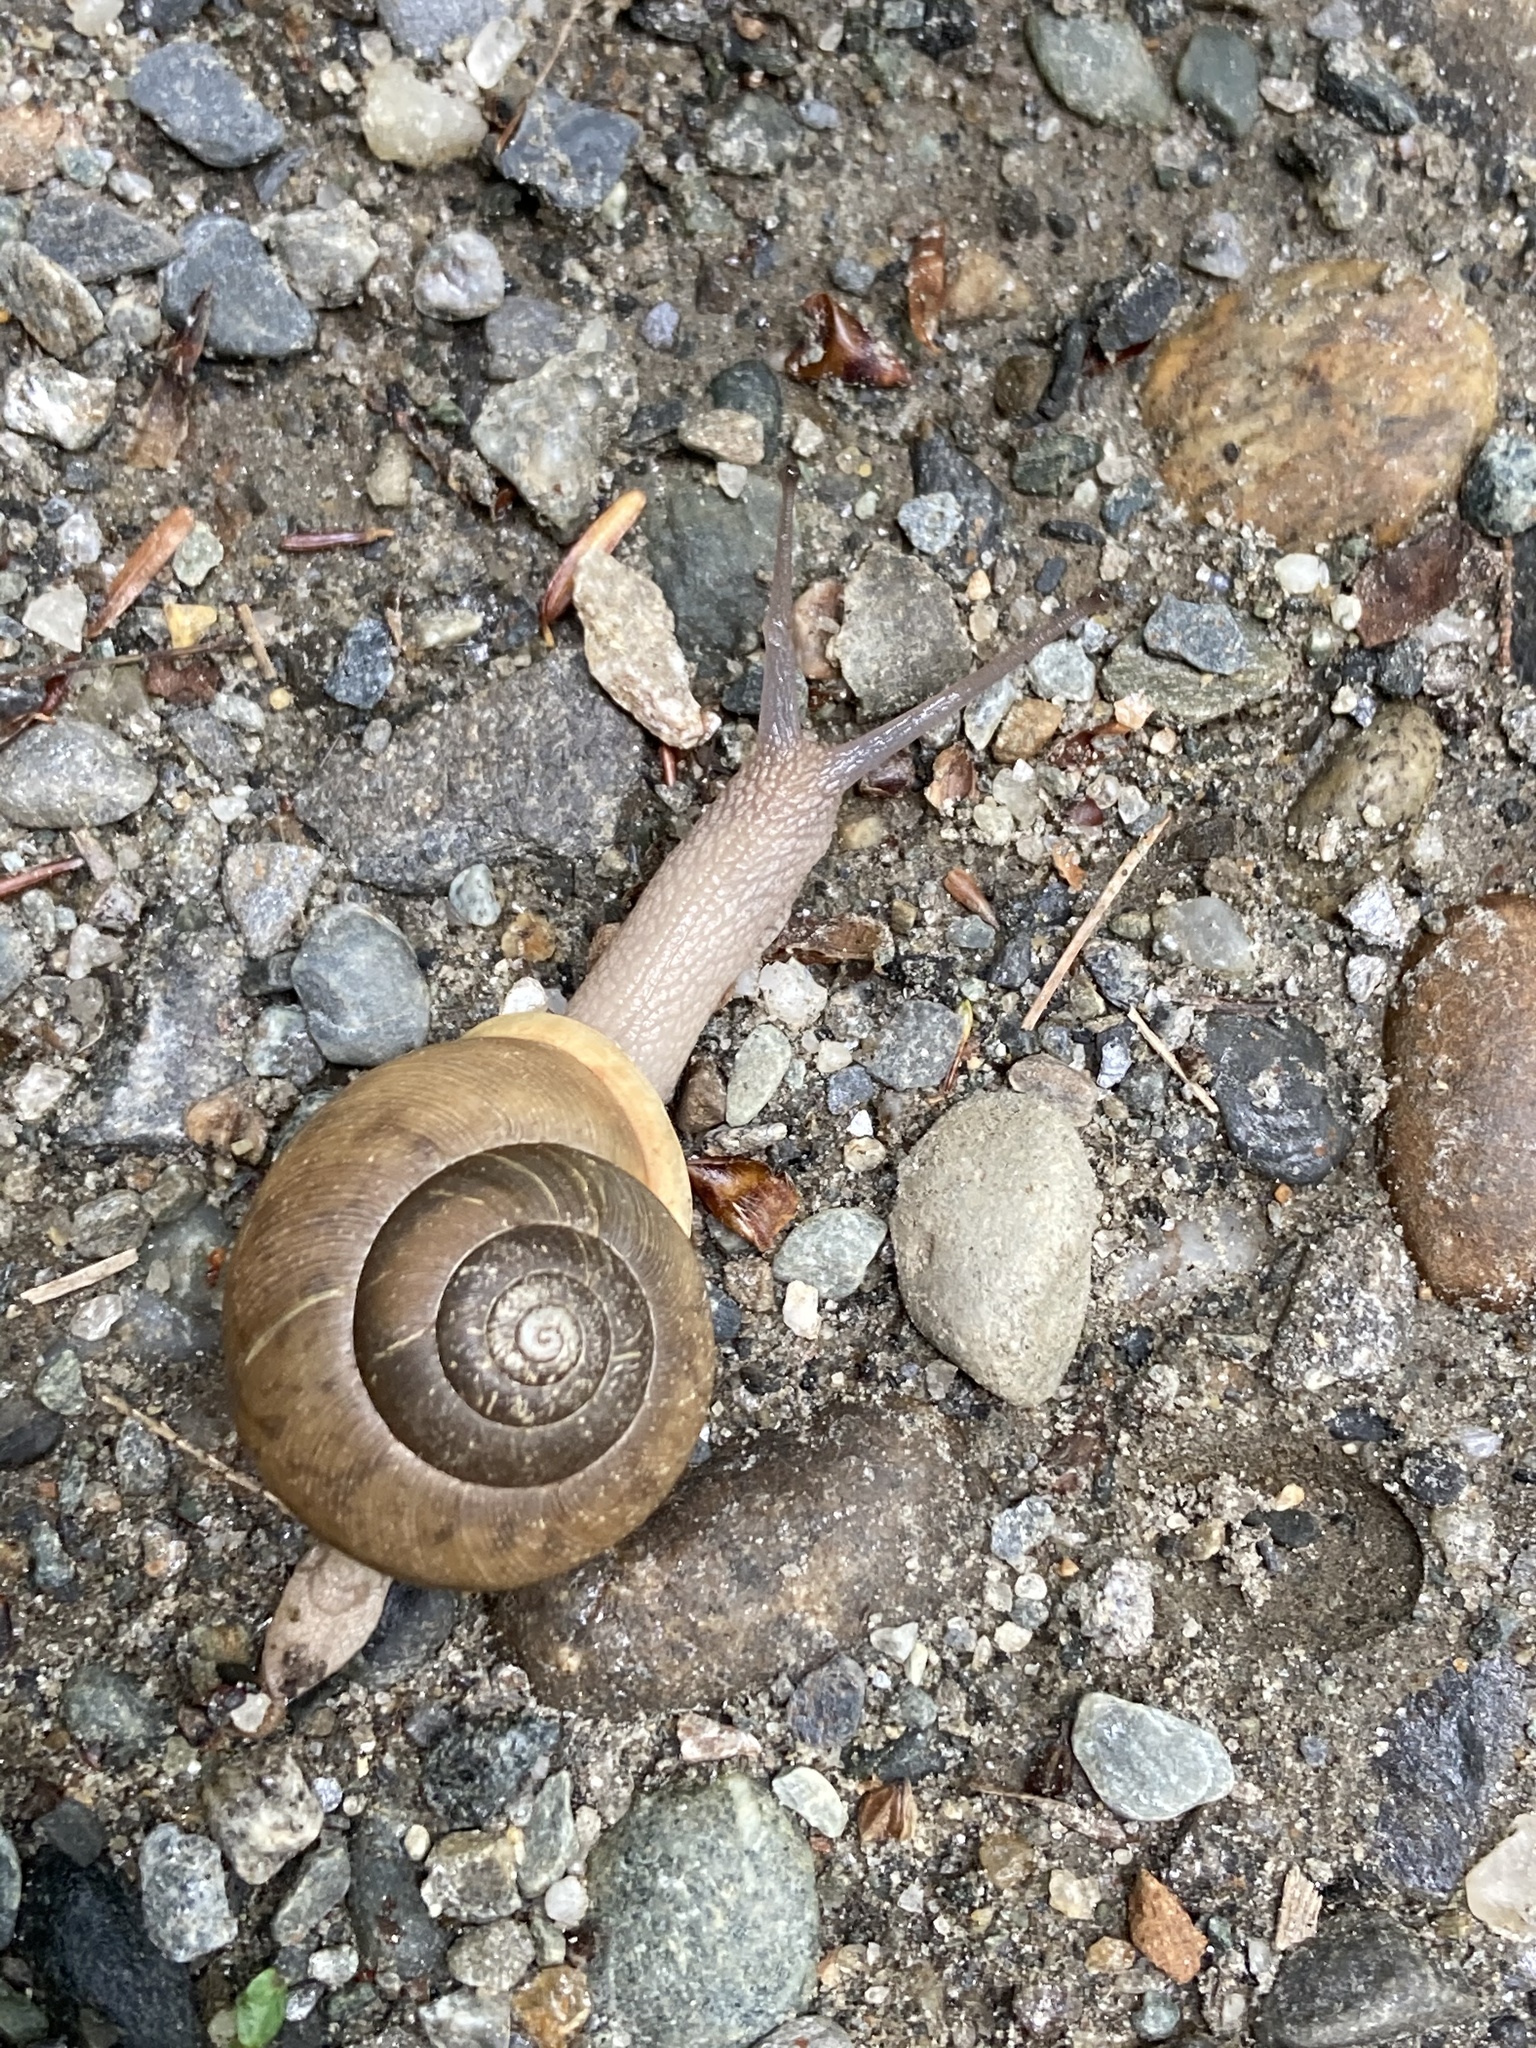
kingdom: Animalia
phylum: Mollusca
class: Gastropoda
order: Stylommatophora
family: Polygyridae
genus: Neohelix
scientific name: Neohelix albolabris
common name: Eastern whitelip
